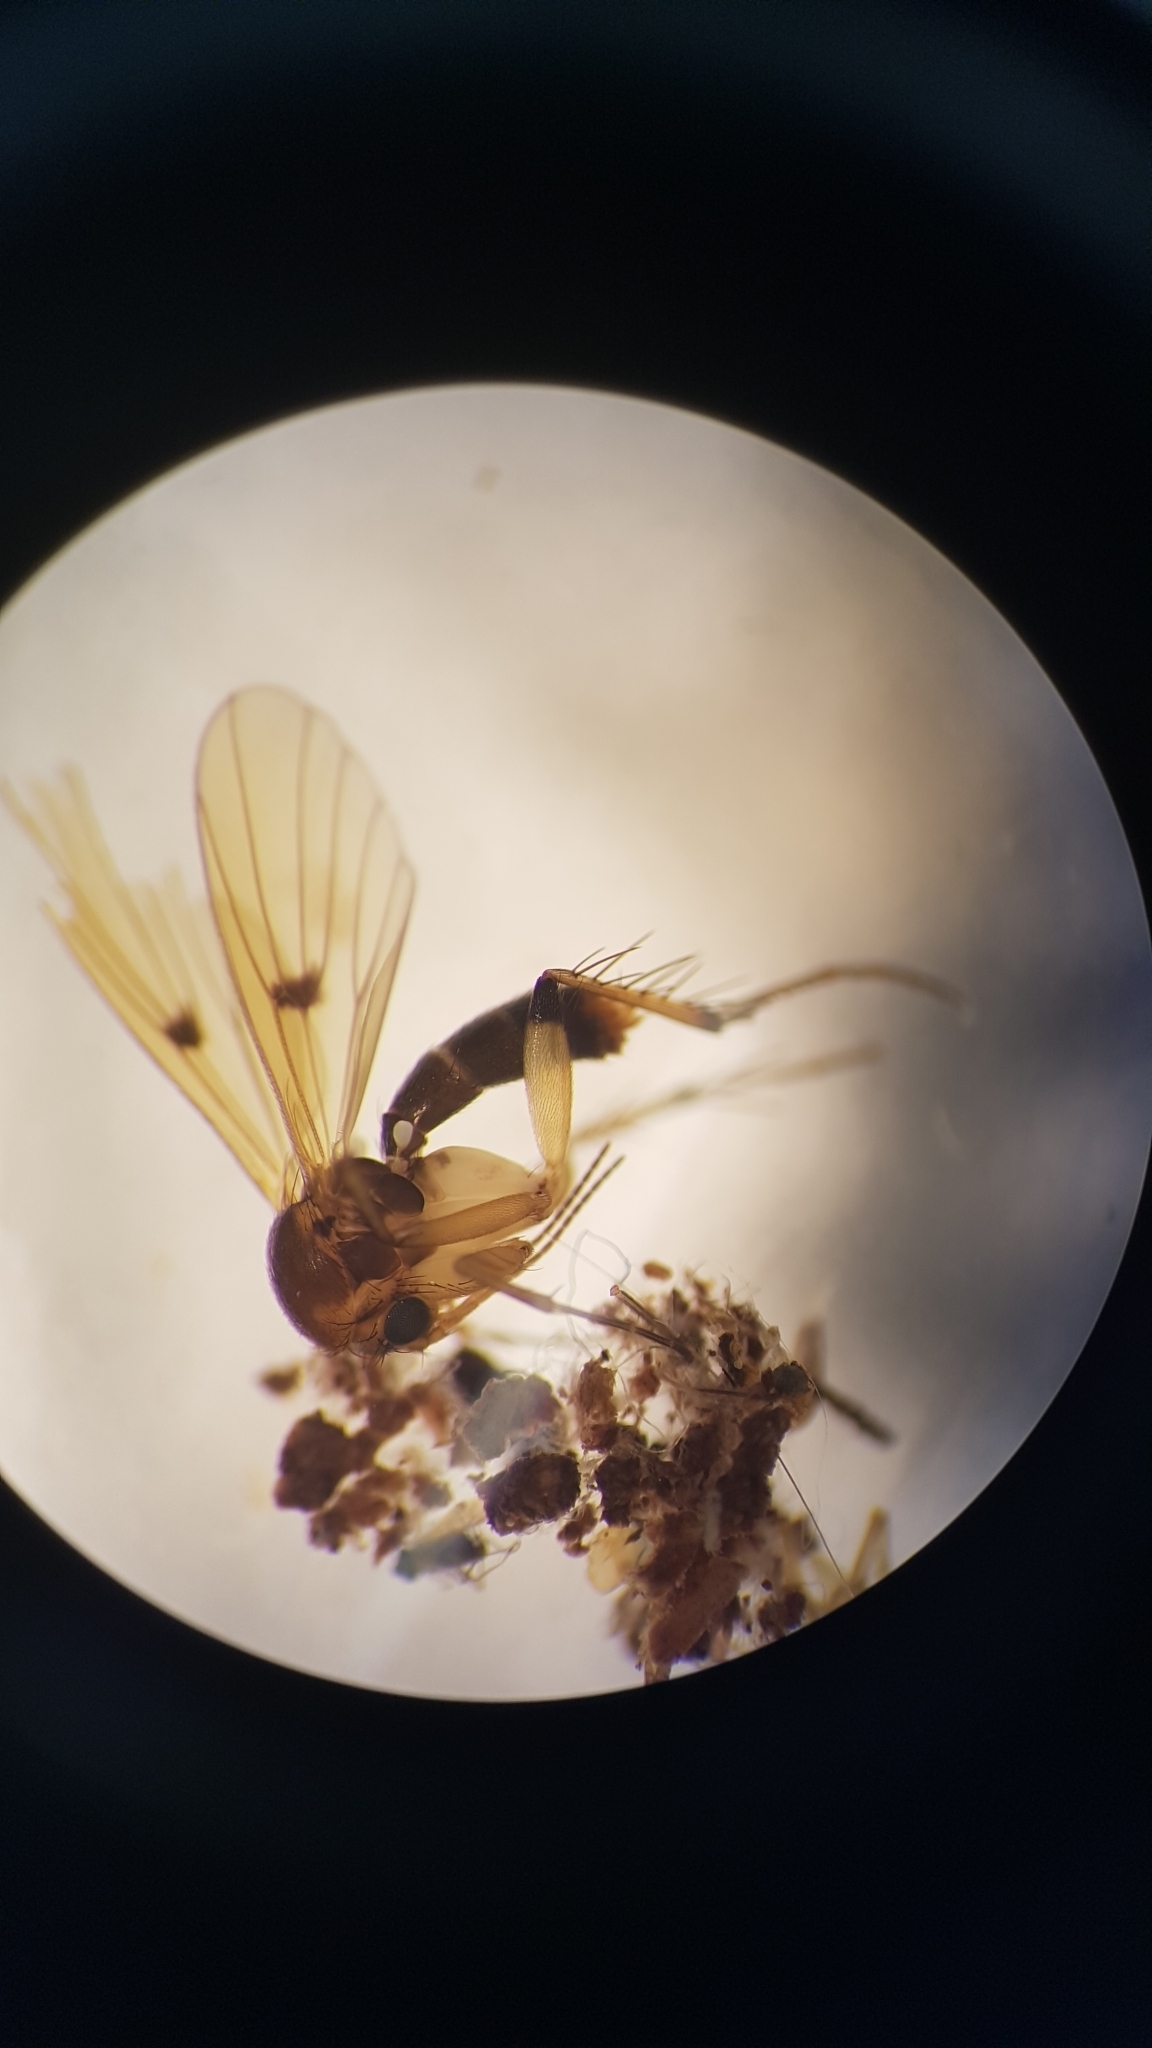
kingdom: Animalia
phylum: Arthropoda
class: Insecta
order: Diptera
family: Mycetophilidae
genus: Mycetophila
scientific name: Mycetophila colorata
